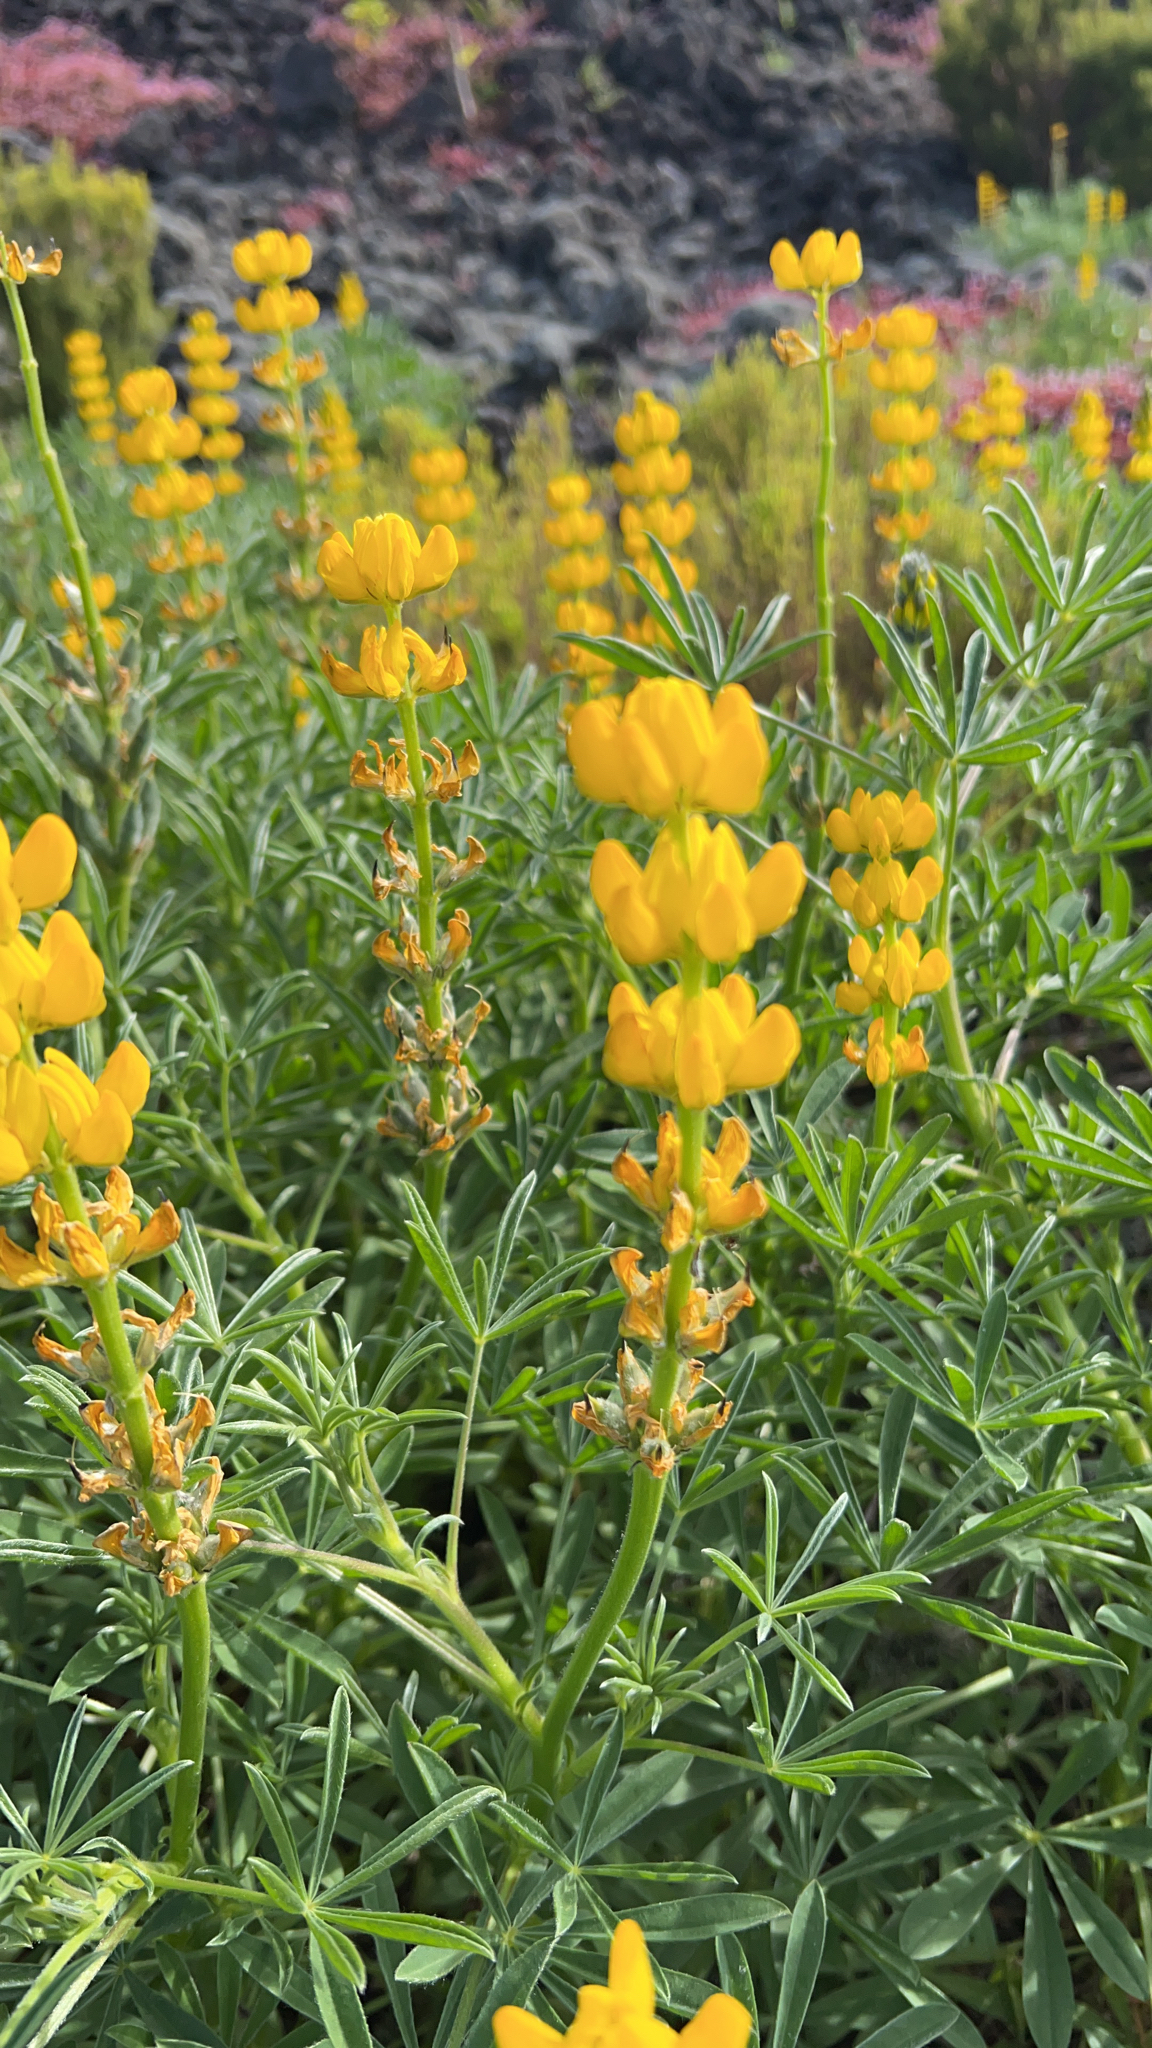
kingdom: Plantae
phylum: Tracheophyta
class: Magnoliopsida
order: Fabales
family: Fabaceae
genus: Lupinus
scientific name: Lupinus luteus
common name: European yellow lupine
